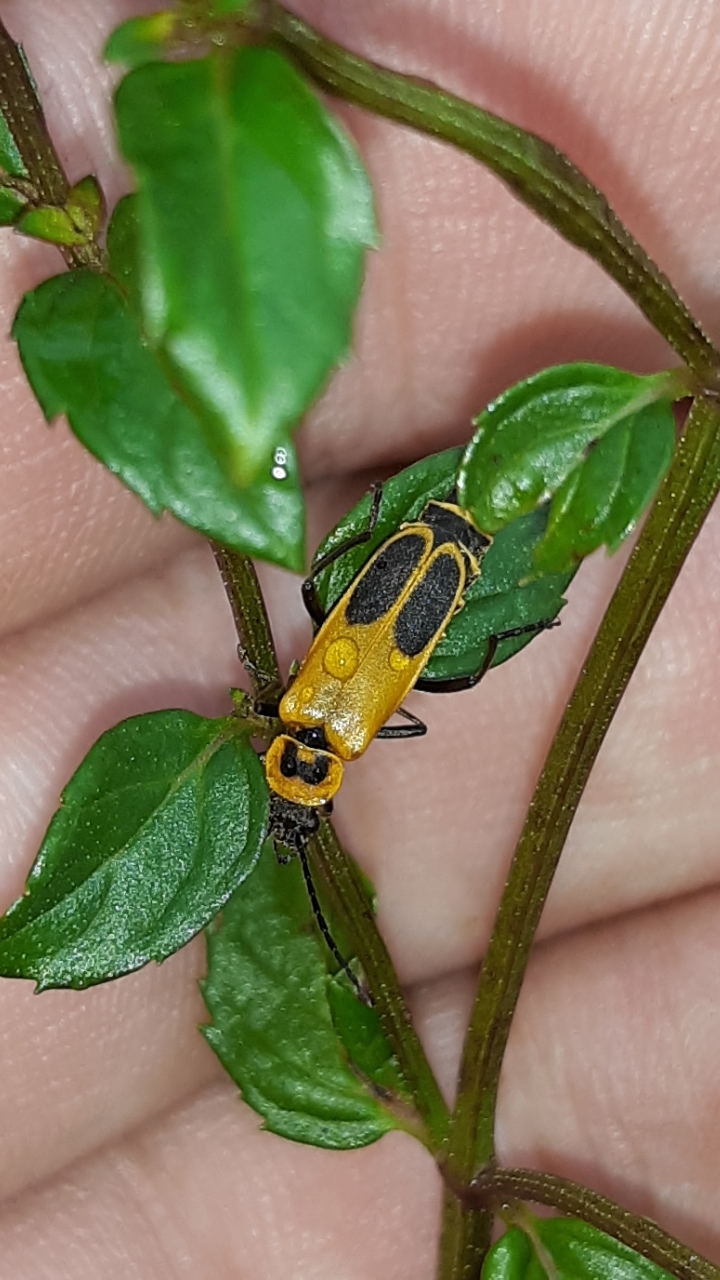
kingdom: Animalia
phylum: Arthropoda
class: Insecta
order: Coleoptera
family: Cantharidae
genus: Chauliognathus
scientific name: Chauliognathus pensylvanicus
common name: Goldenrod soldier beetle
